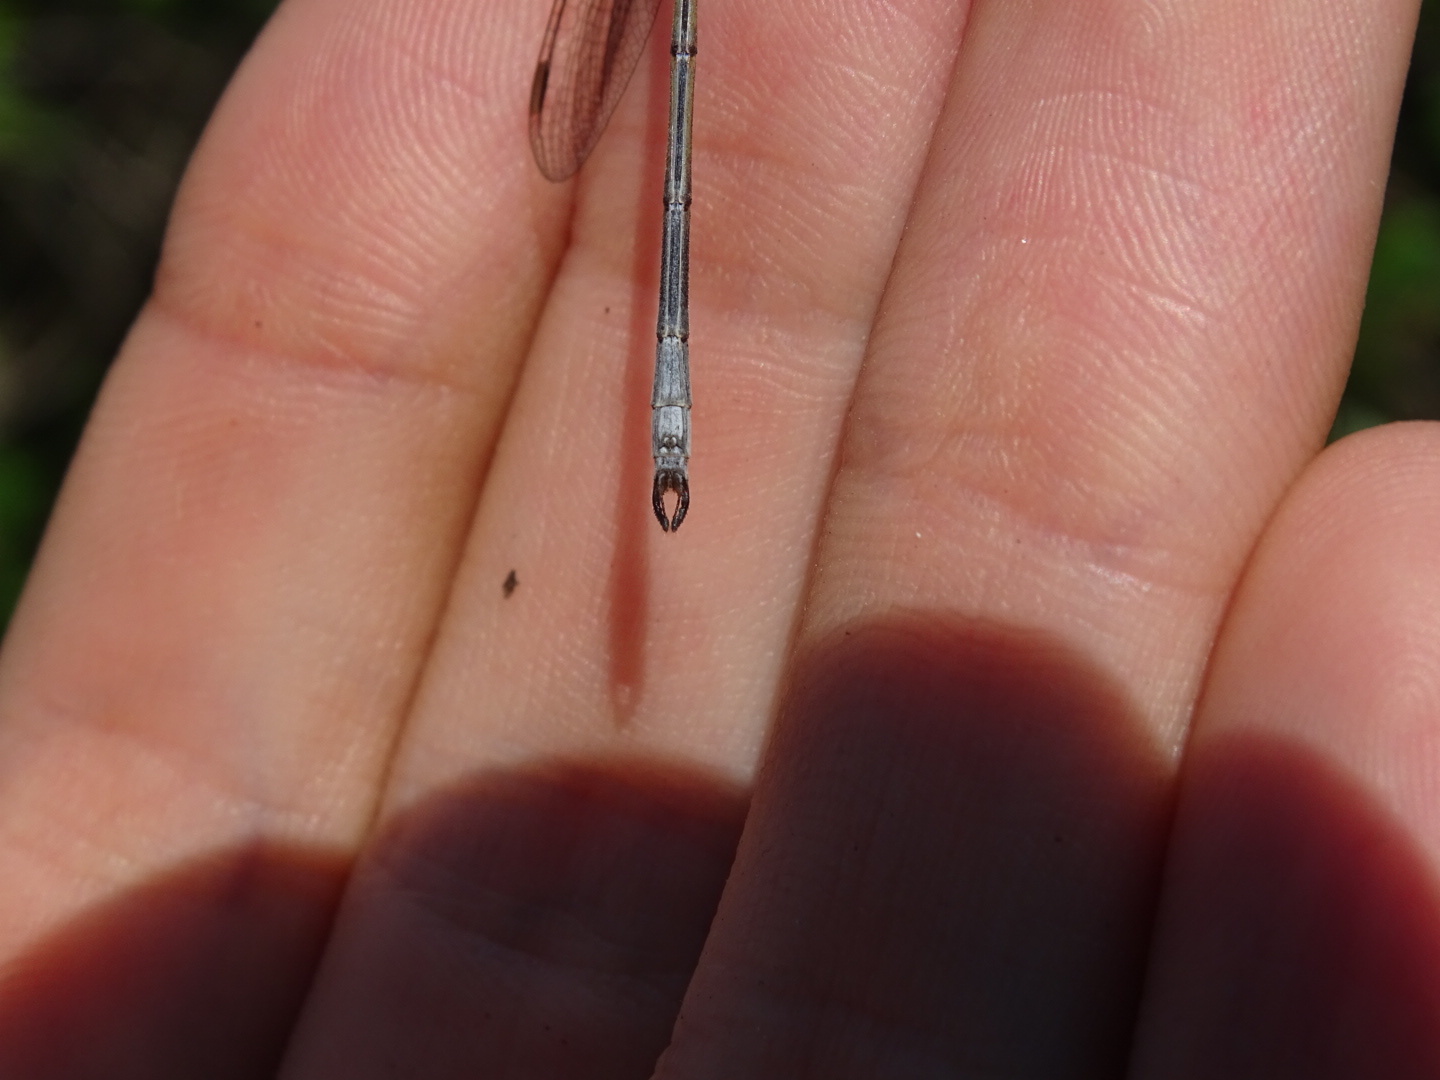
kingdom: Animalia
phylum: Arthropoda
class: Insecta
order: Odonata
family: Lestidae
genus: Lestes
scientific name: Lestes vigilax
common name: Swamp spreadwing
